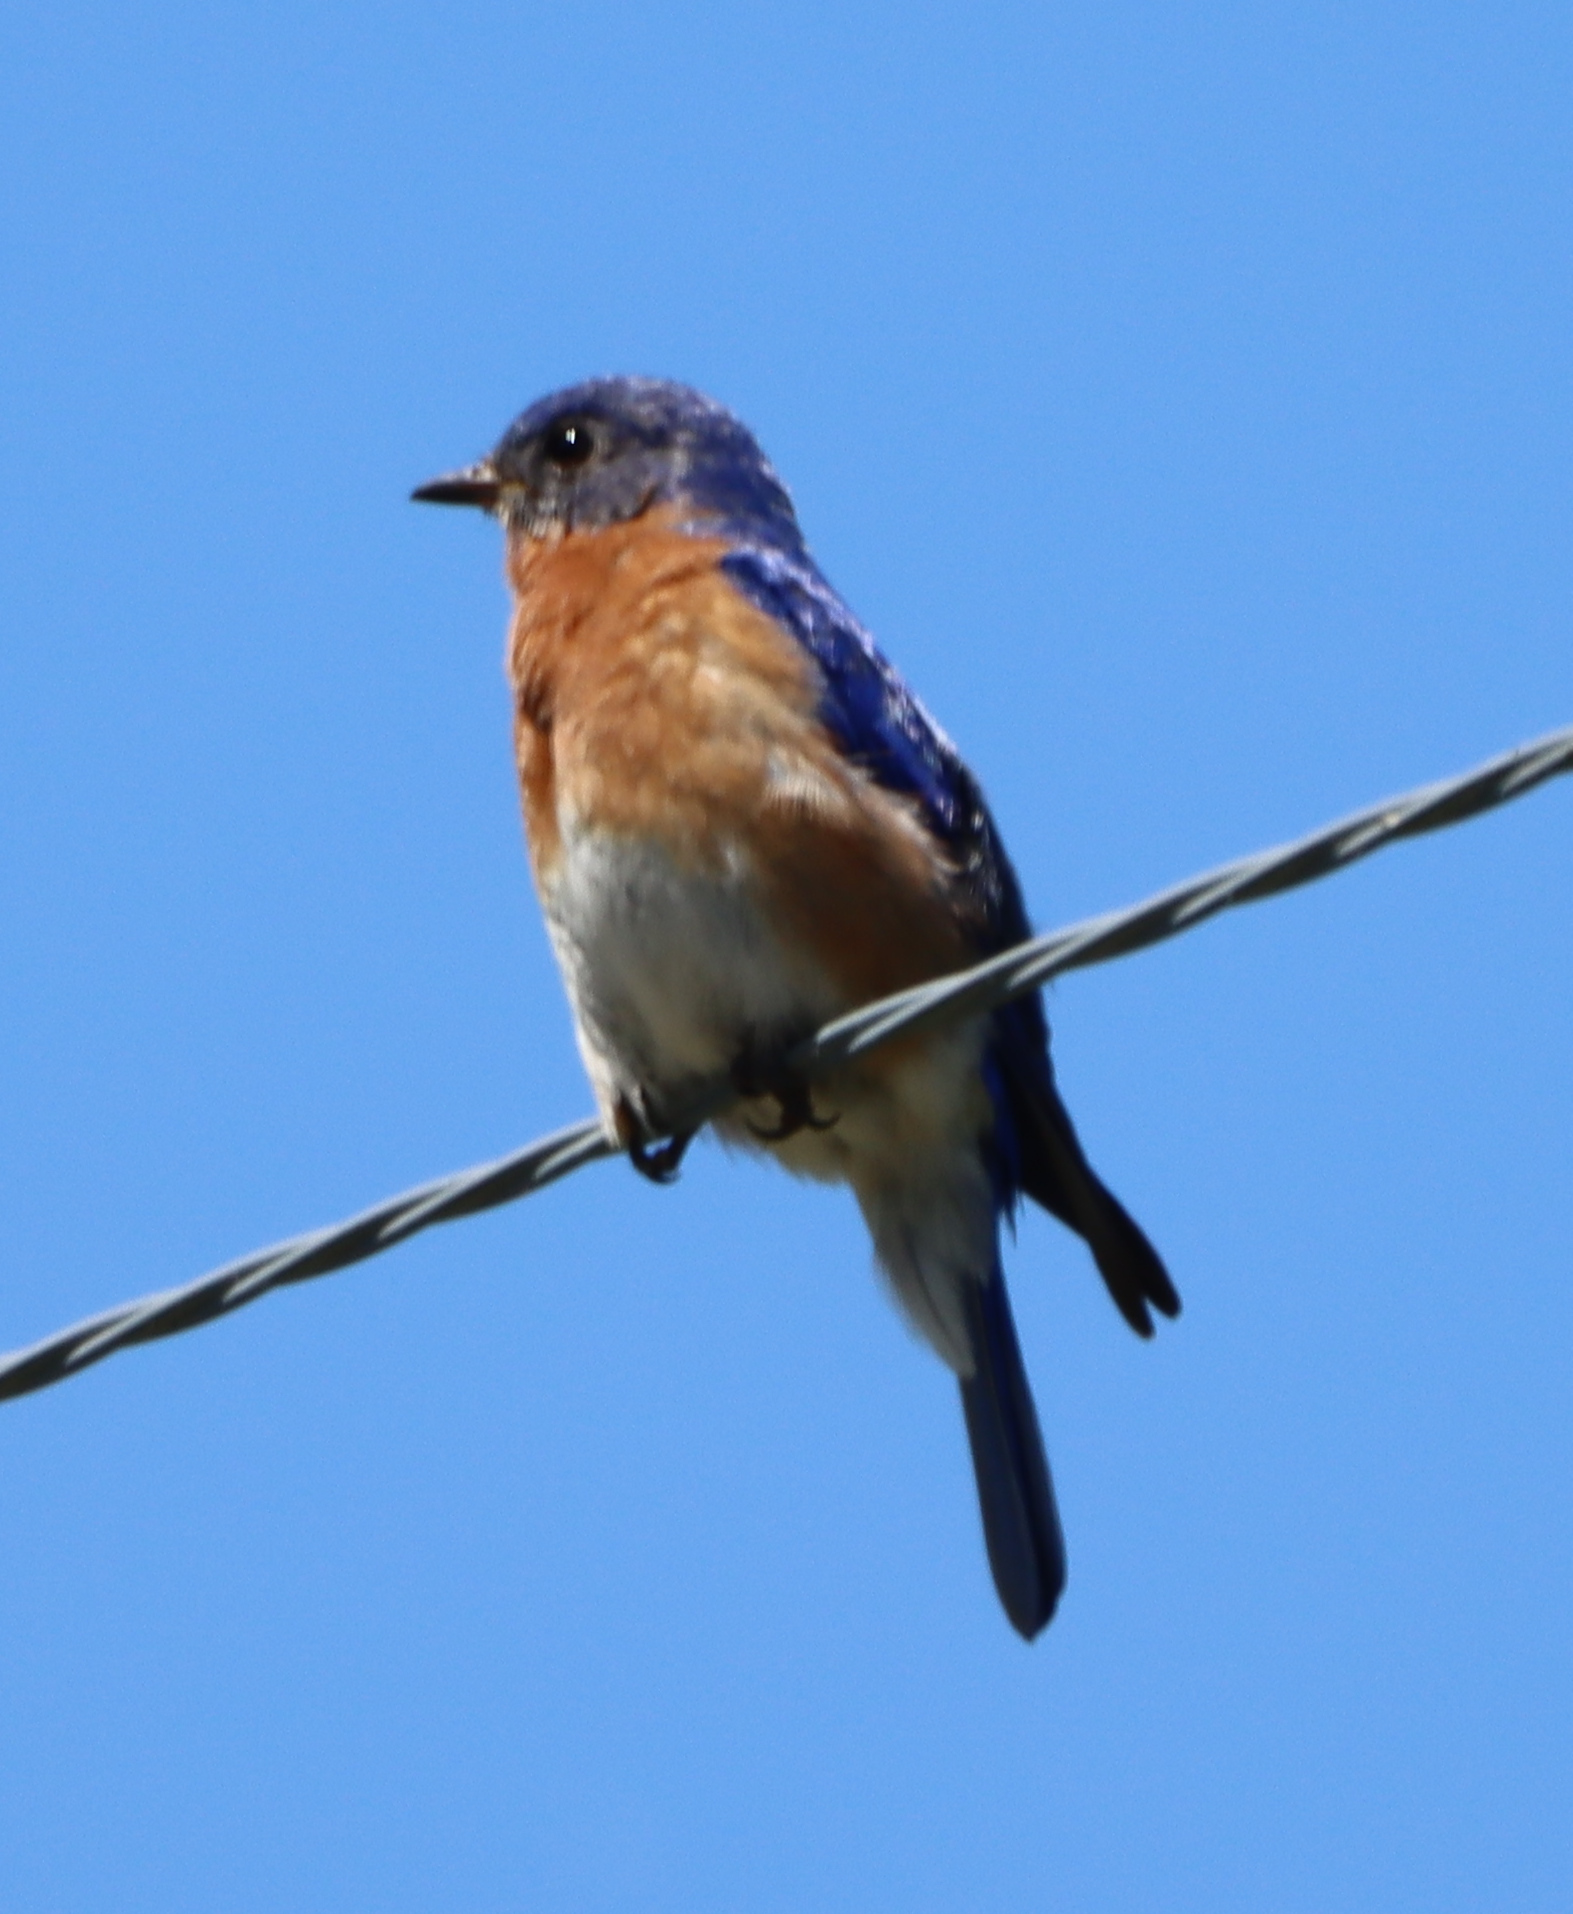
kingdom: Animalia
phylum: Chordata
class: Aves
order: Passeriformes
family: Turdidae
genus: Sialia
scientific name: Sialia sialis
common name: Eastern bluebird
